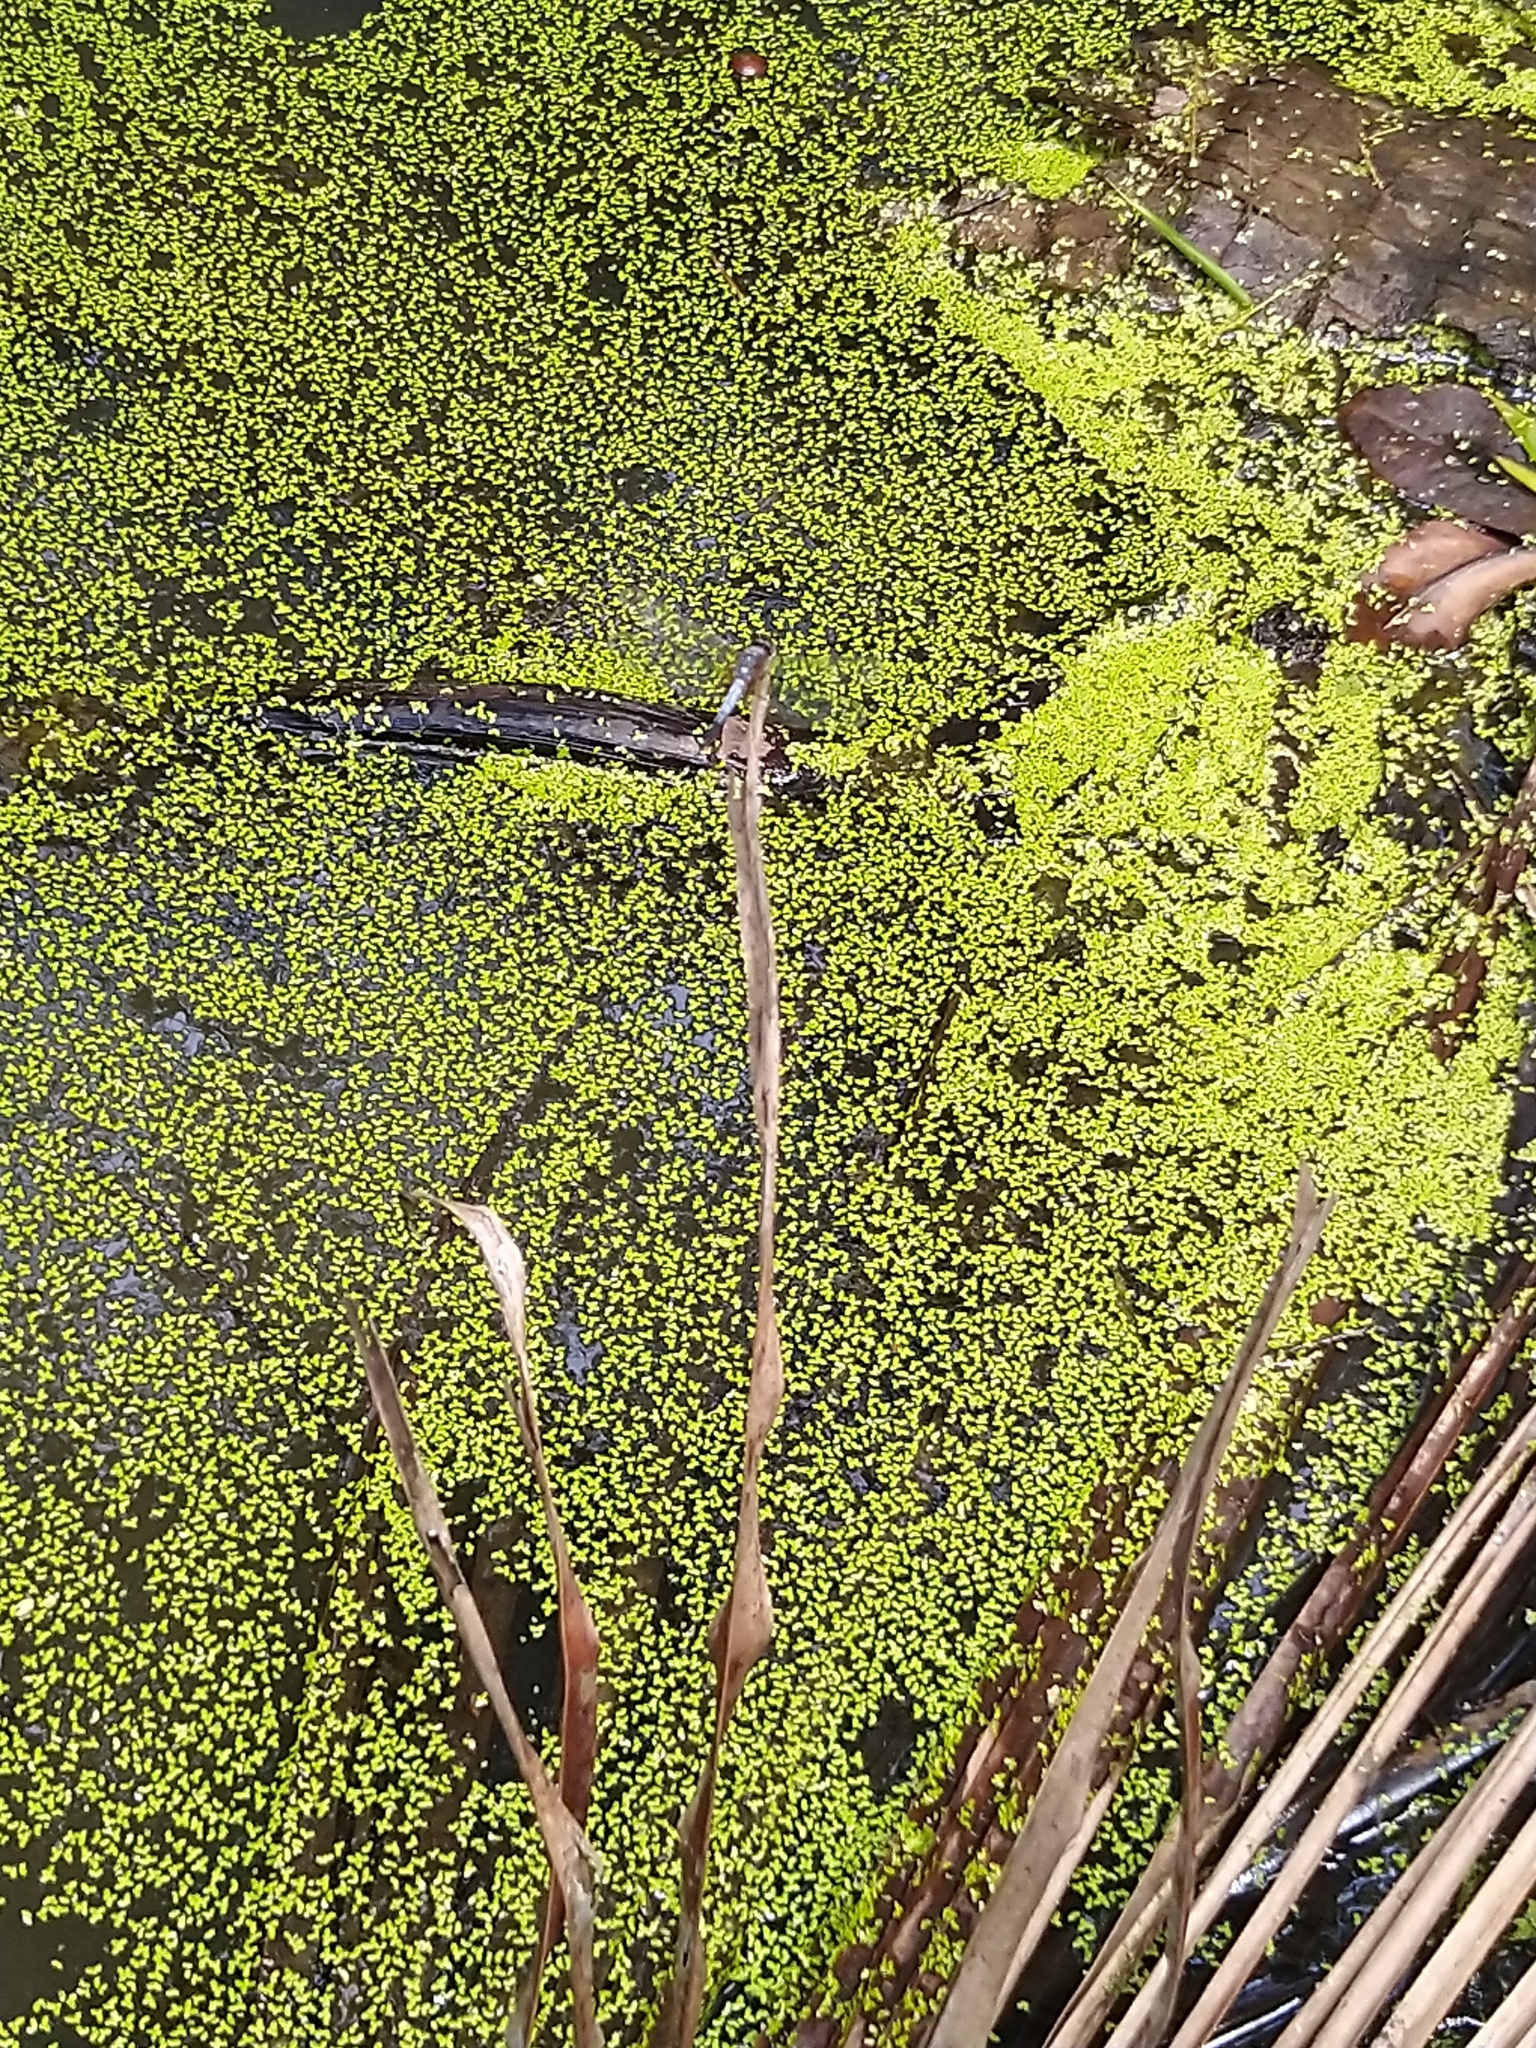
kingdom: Animalia
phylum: Arthropoda
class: Insecta
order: Odonata
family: Libellulidae
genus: Brachydiplax
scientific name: Brachydiplax chalybea
